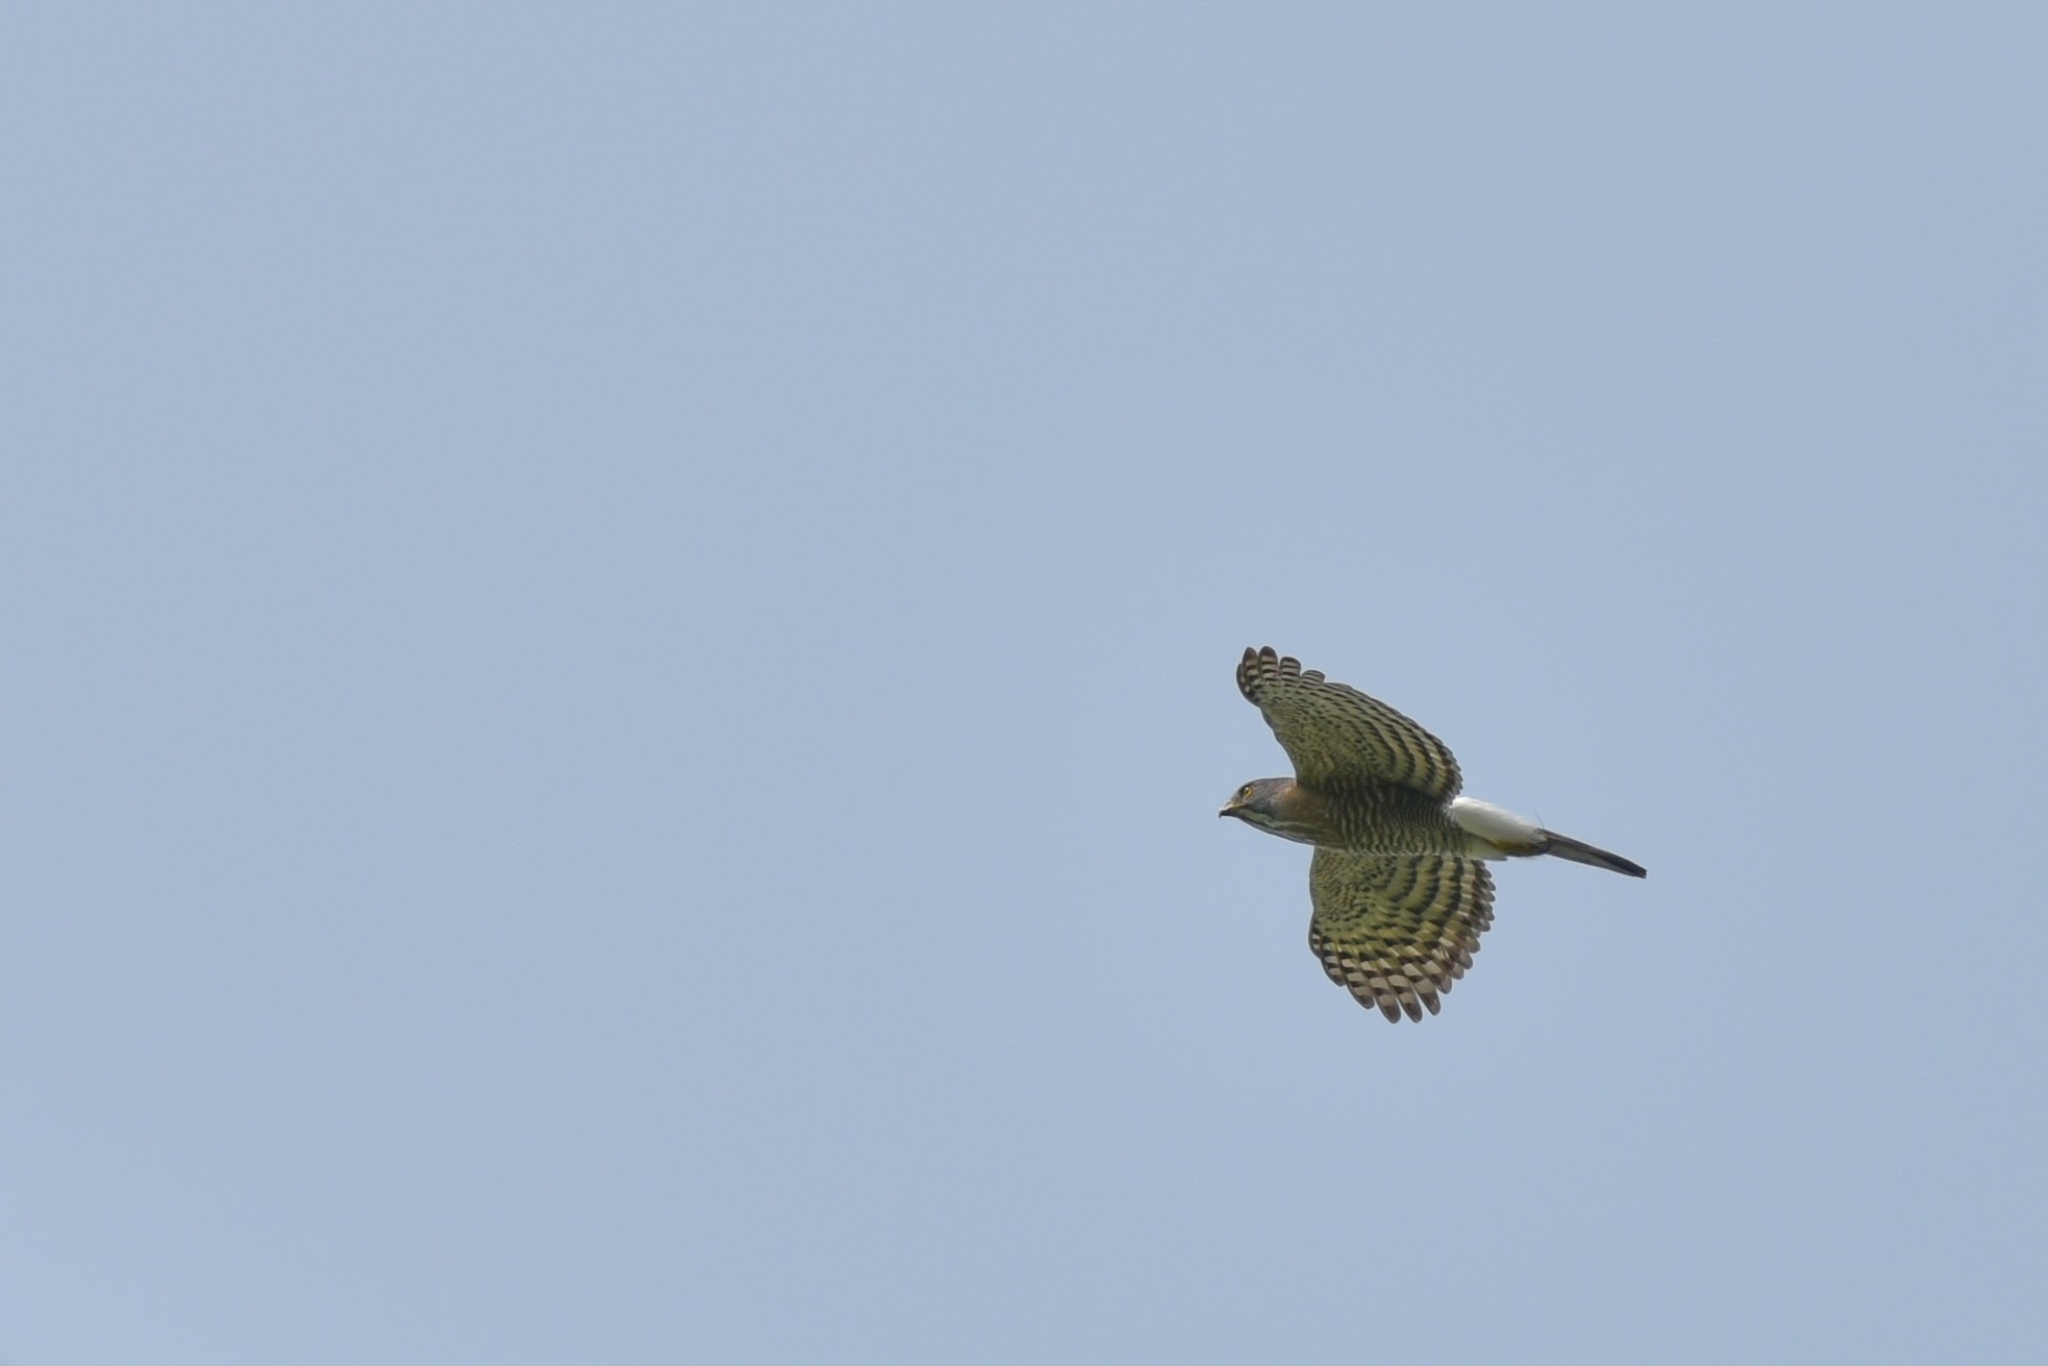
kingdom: Animalia
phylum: Chordata
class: Aves
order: Accipitriformes
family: Accipitridae
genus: Accipiter
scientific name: Accipiter virgatus
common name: Besra
